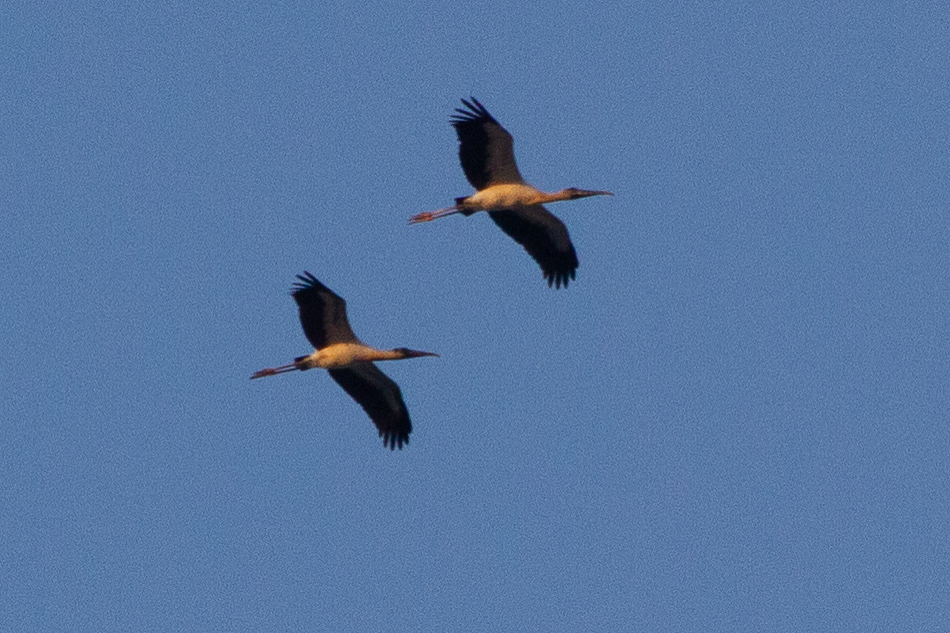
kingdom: Animalia
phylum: Chordata
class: Aves
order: Ciconiiformes
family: Ciconiidae
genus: Mycteria
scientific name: Mycteria americana
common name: Wood stork
